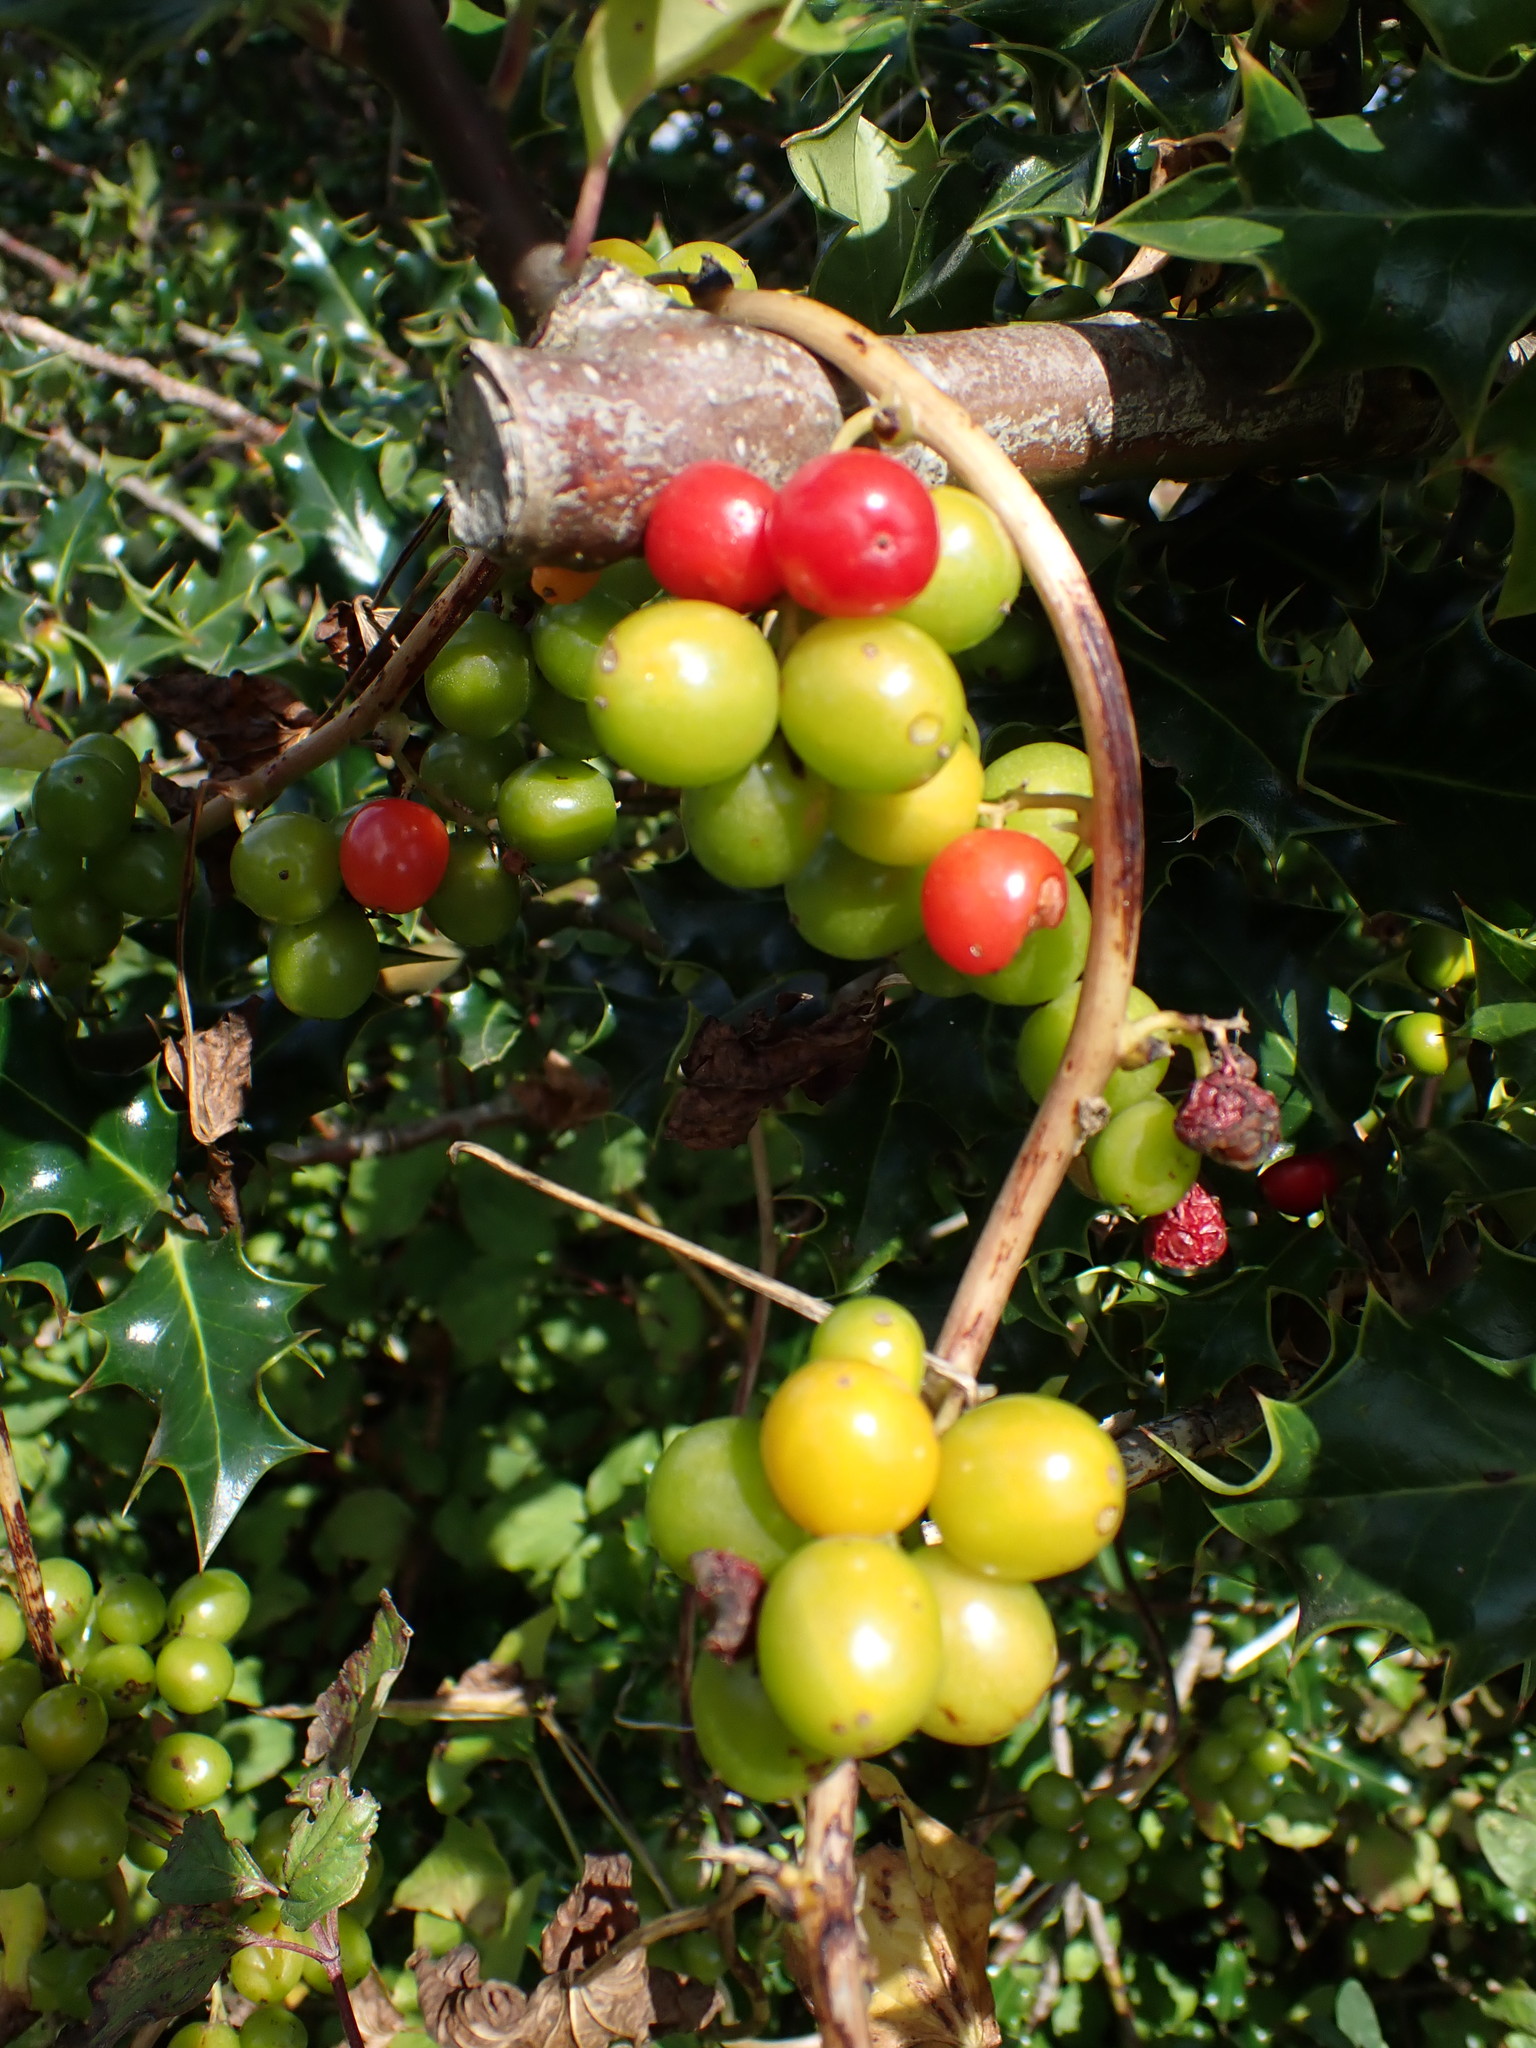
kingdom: Plantae
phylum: Tracheophyta
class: Liliopsida
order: Dioscoreales
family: Dioscoreaceae
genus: Dioscorea
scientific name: Dioscorea communis
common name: Black-bindweed
